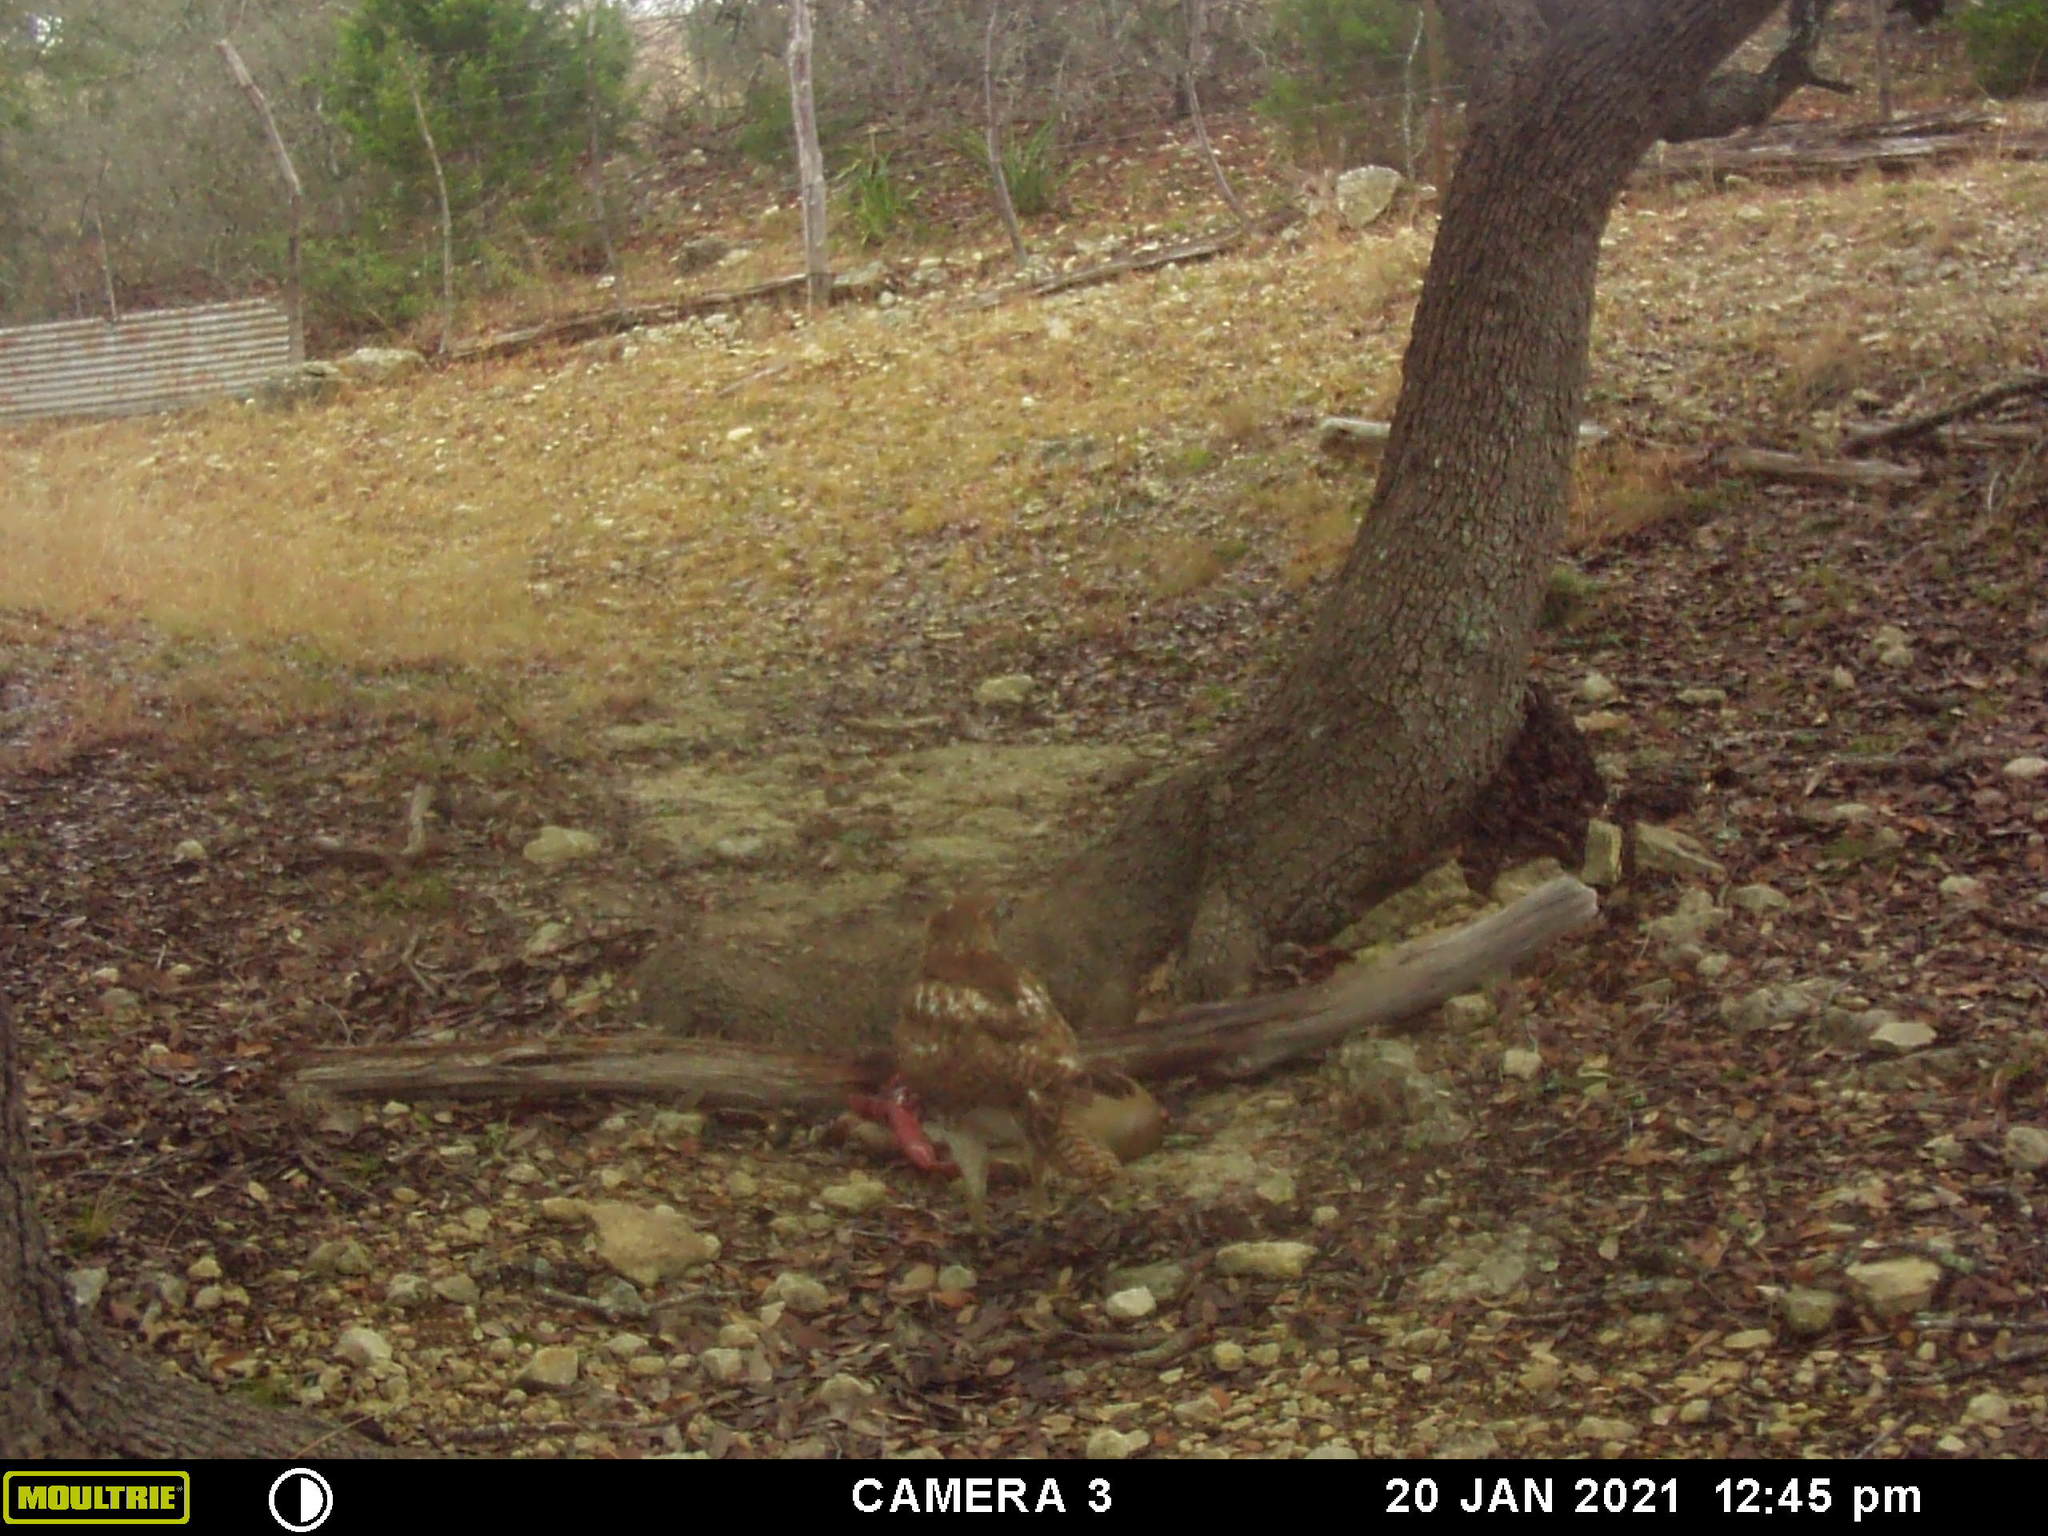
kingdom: Animalia
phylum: Chordata
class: Aves
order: Accipitriformes
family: Accipitridae
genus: Buteo
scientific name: Buteo jamaicensis
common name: Red-tailed hawk
